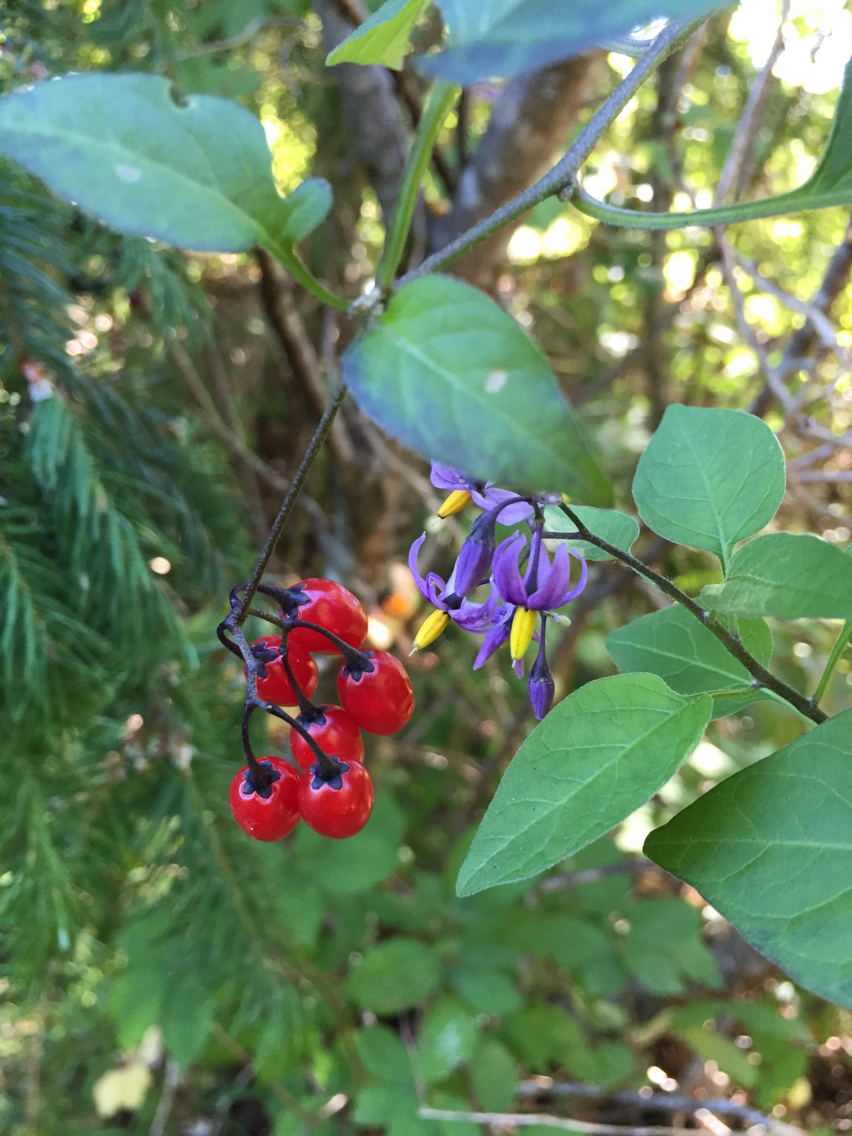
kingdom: Plantae
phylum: Tracheophyta
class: Magnoliopsida
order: Solanales
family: Solanaceae
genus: Solanum
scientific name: Solanum dulcamara
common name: Climbing nightshade
